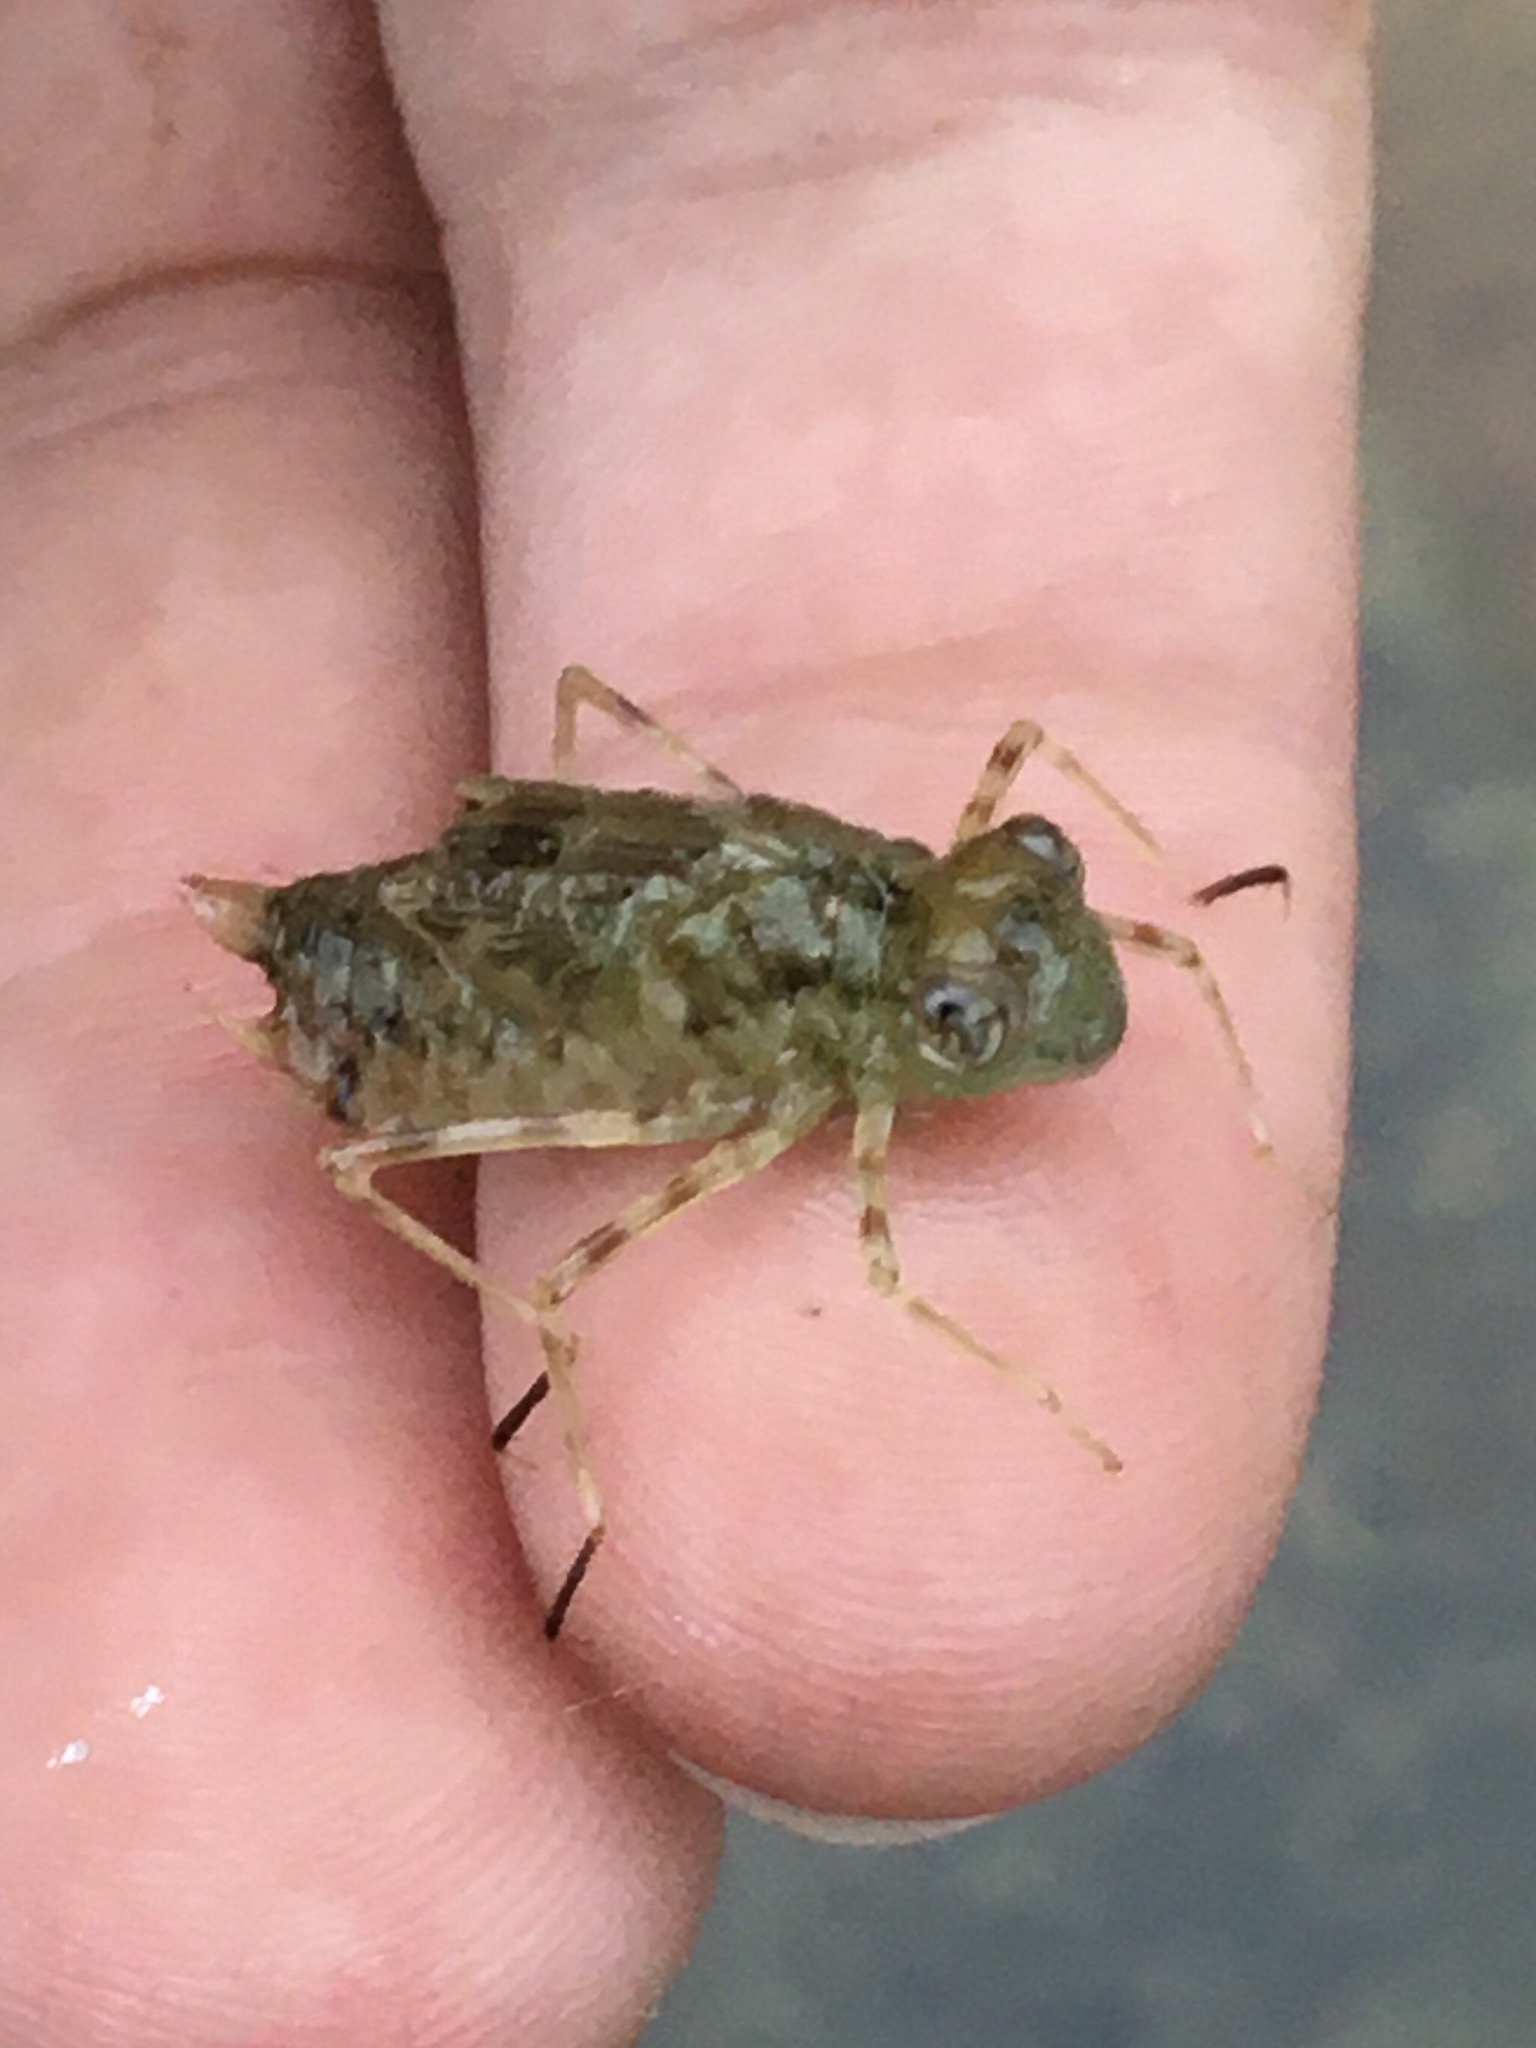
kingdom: Animalia
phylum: Arthropoda
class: Insecta
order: Odonata
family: Libellulidae
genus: Pantala
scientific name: Pantala flavescens
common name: Wandering glider
